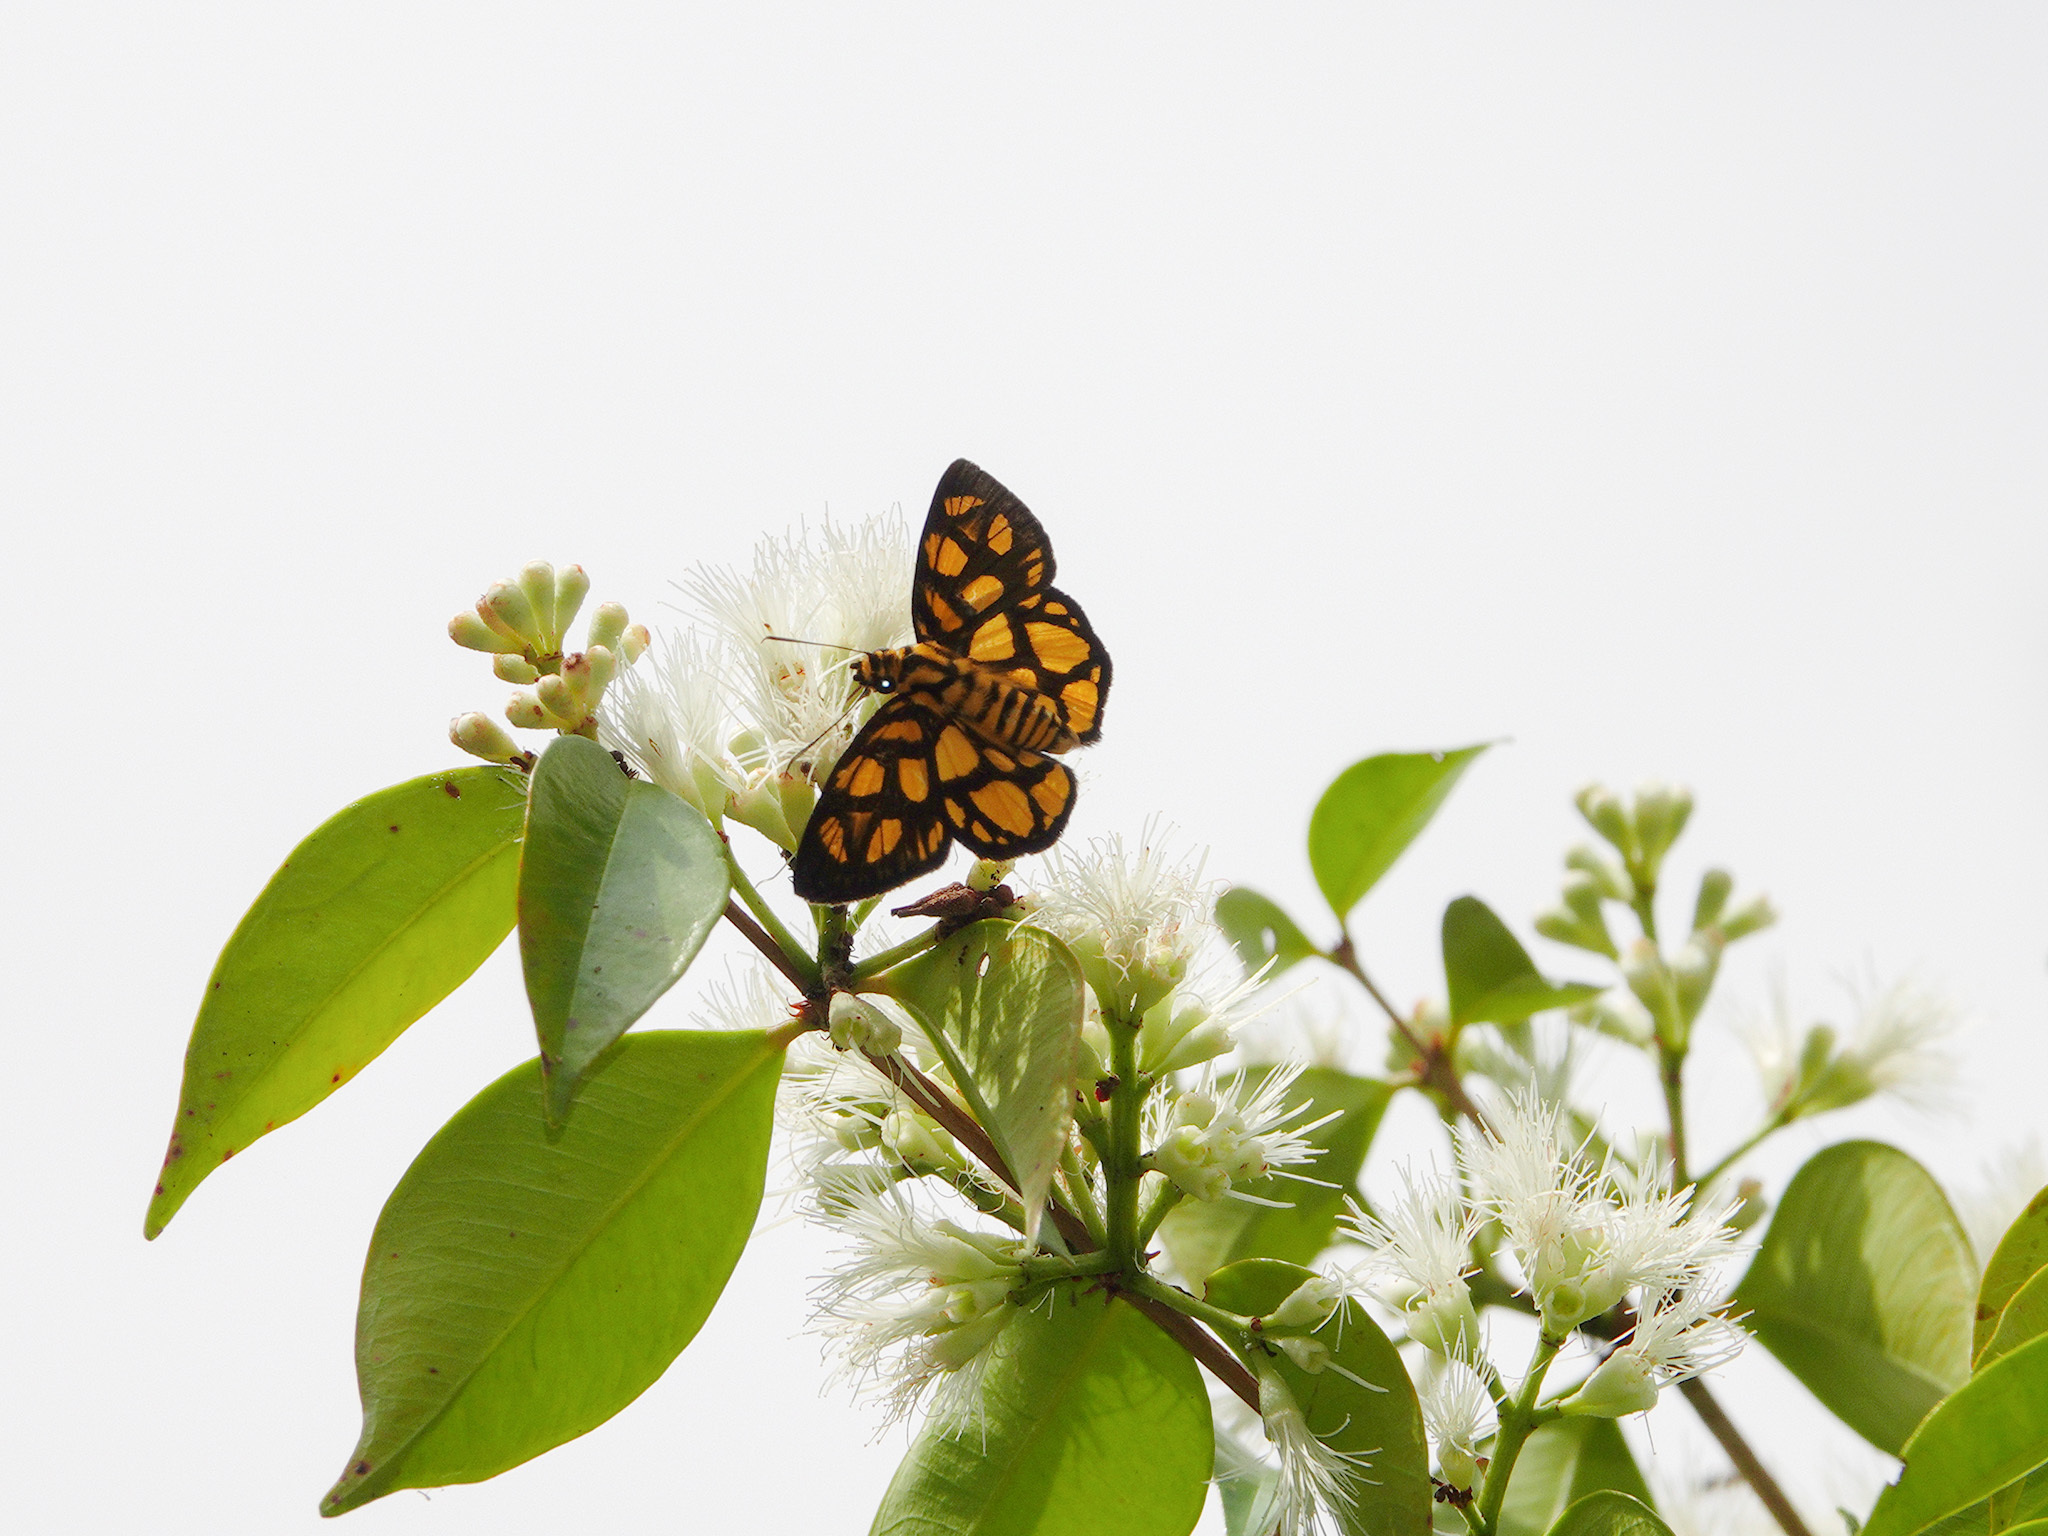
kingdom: Animalia
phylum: Arthropoda
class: Insecta
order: Lepidoptera
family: Hesperiidae
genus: Odina
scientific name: Odina hieroglyphica
